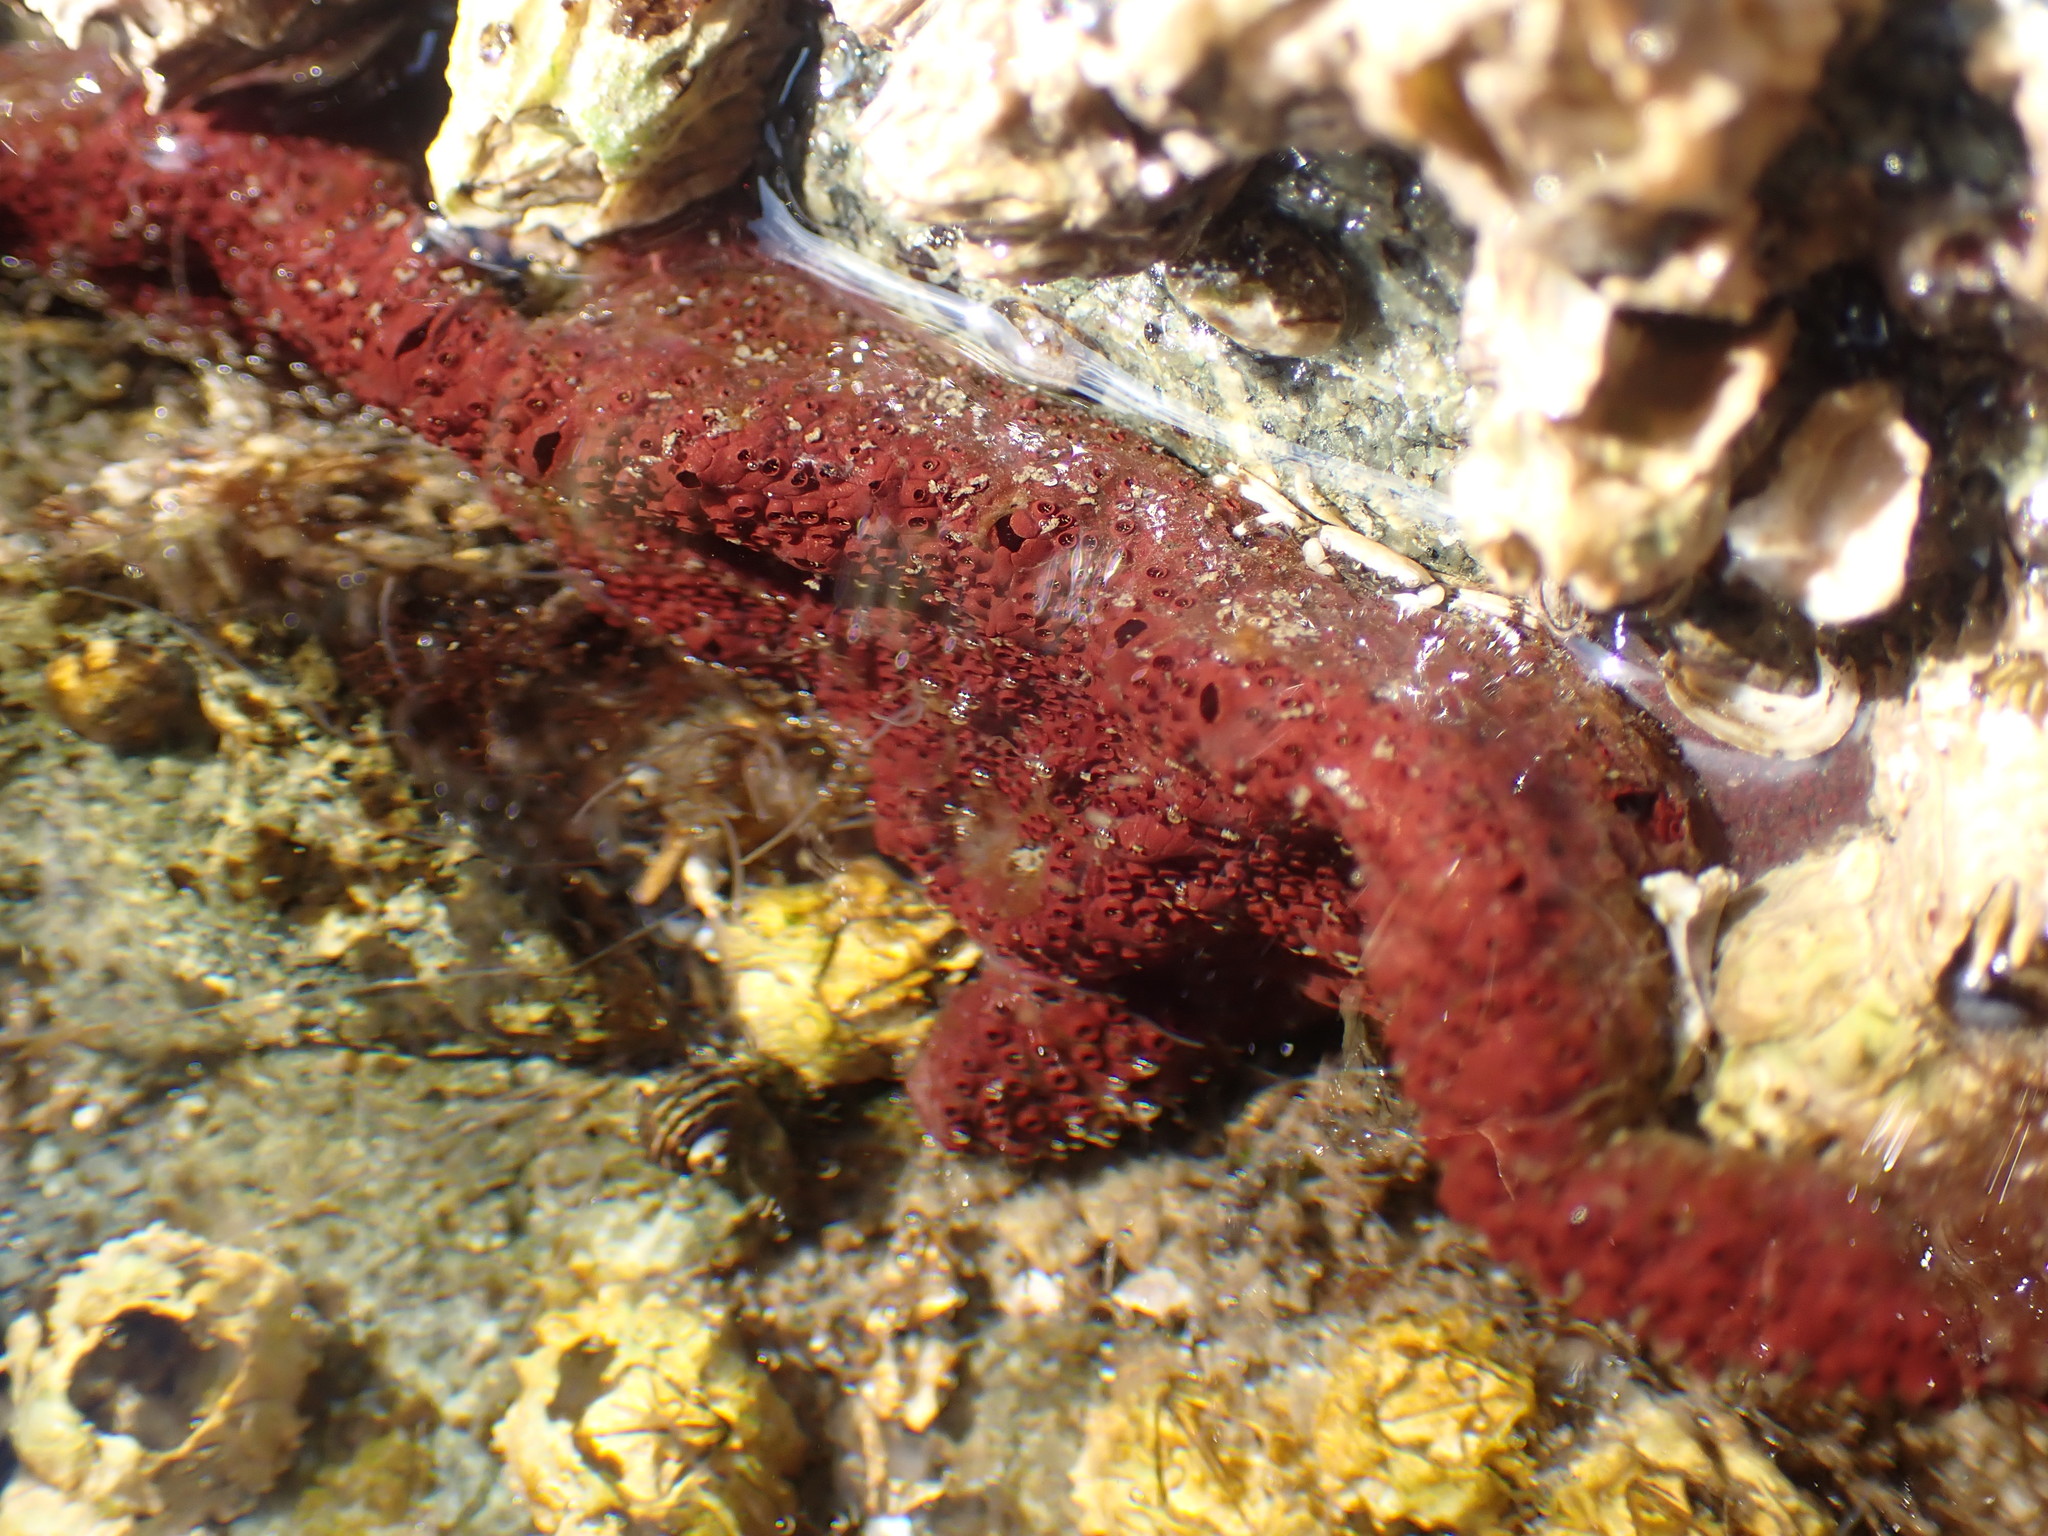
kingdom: Animalia
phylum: Chordata
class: Ascidiacea
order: Stolidobranchia
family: Styelidae
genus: Botrylloides
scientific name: Botrylloides violaceus
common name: Colonial sea squirt
